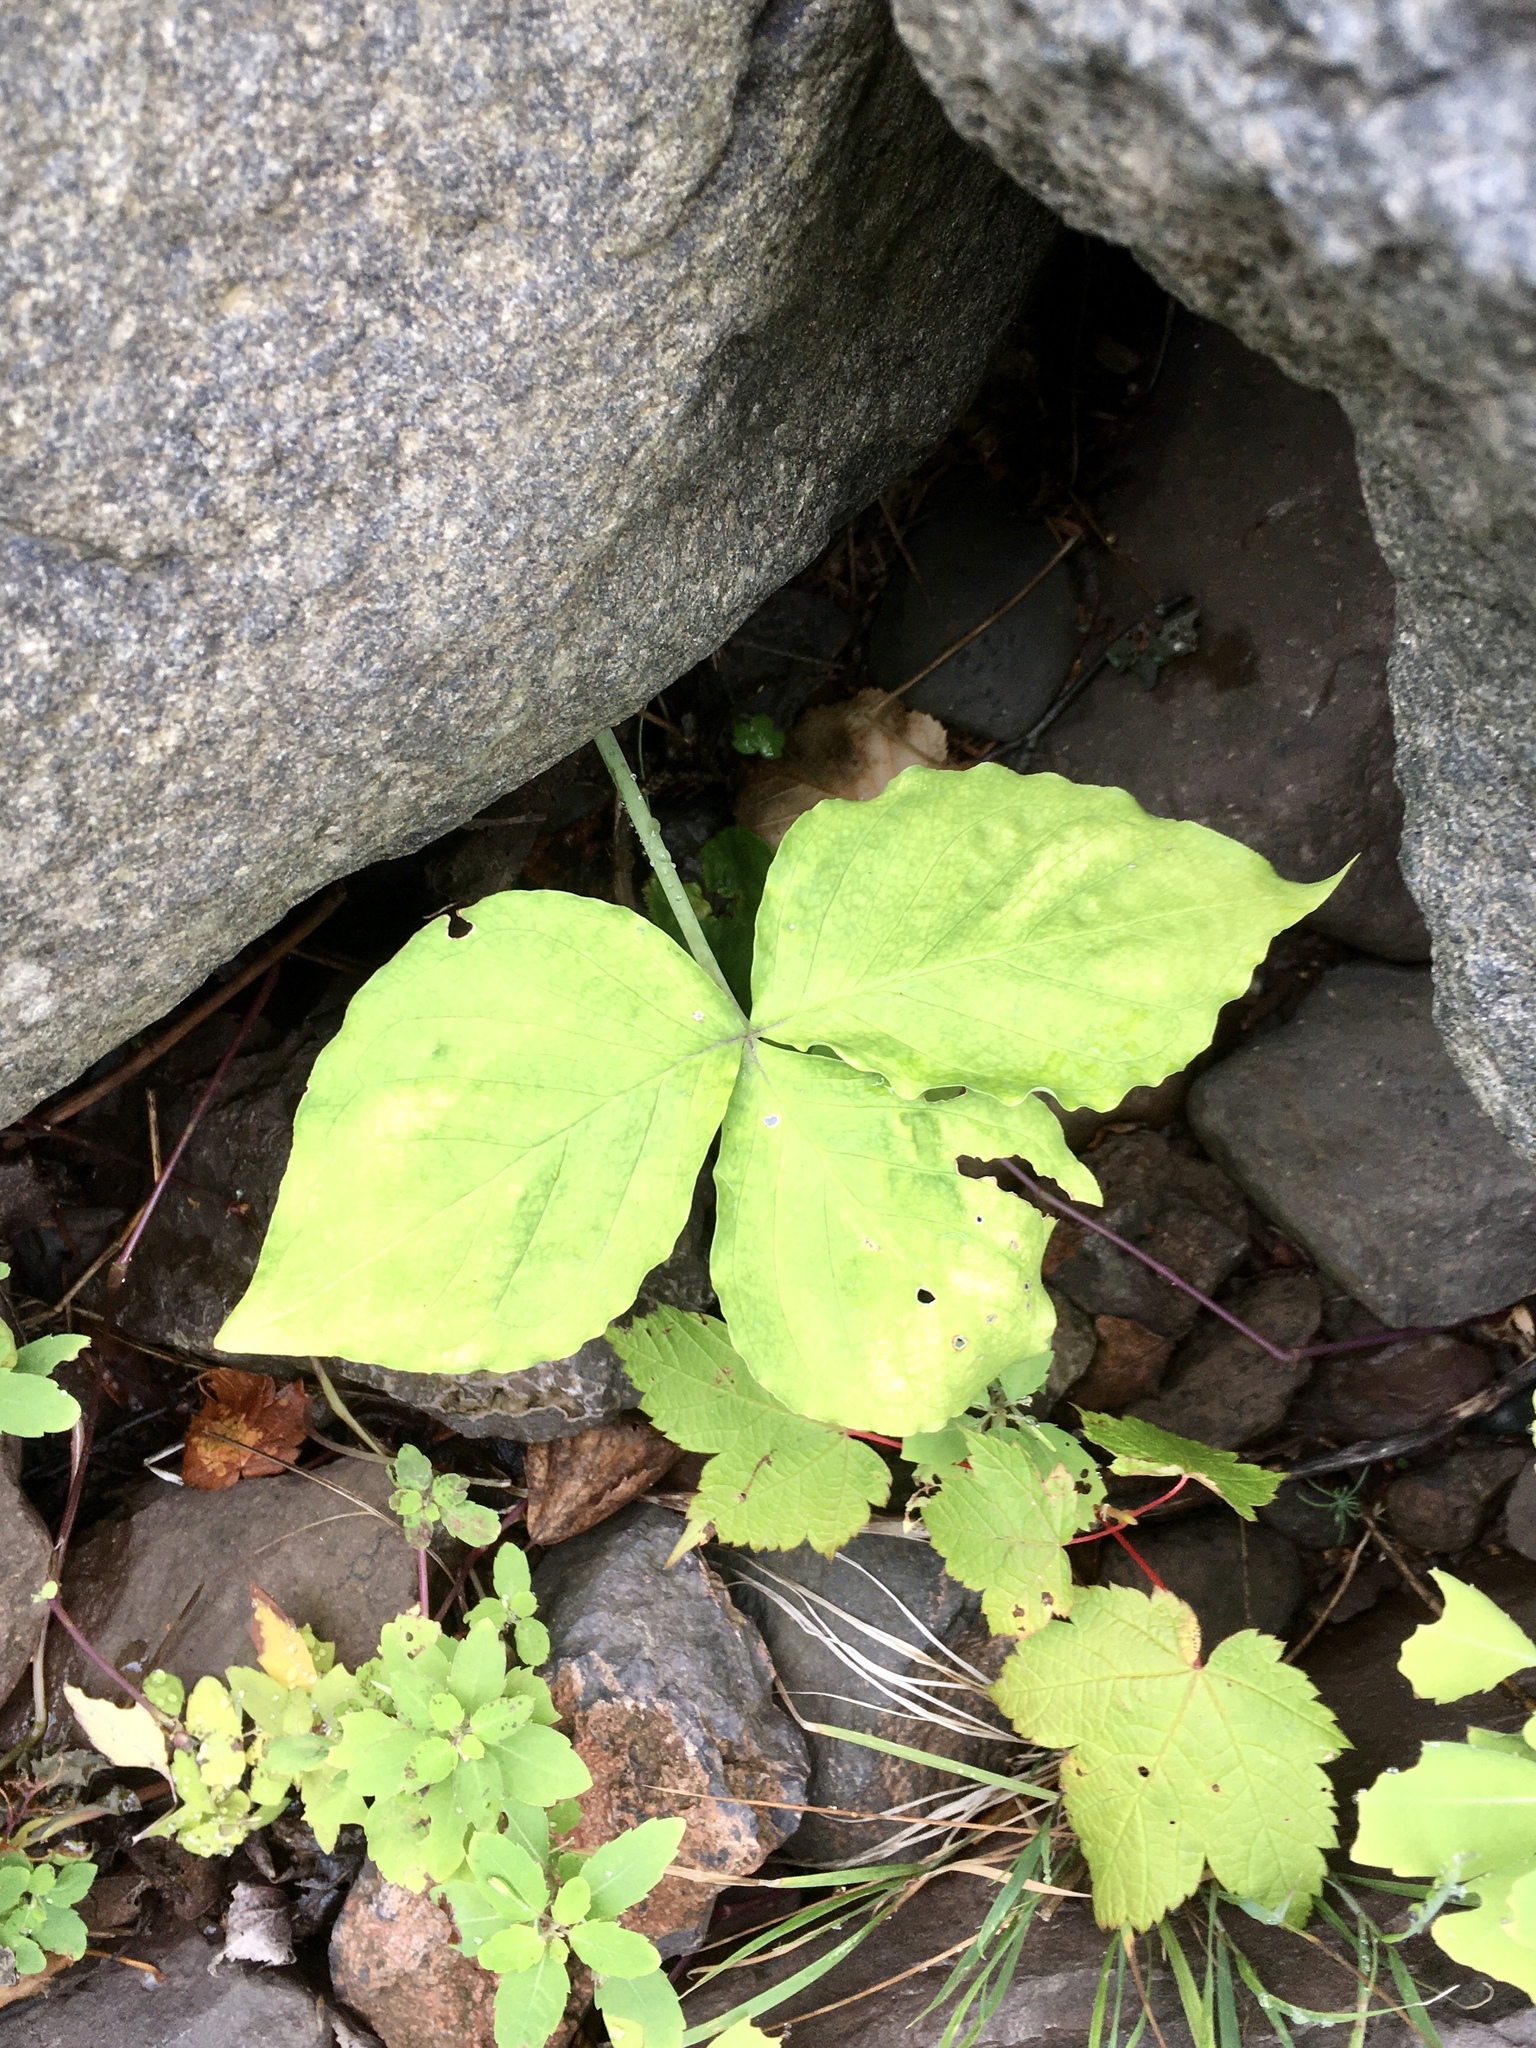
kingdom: Plantae
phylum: Tracheophyta
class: Liliopsida
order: Alismatales
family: Araceae
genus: Arisaema
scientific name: Arisaema triphyllum
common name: Jack-in-the-pulpit
